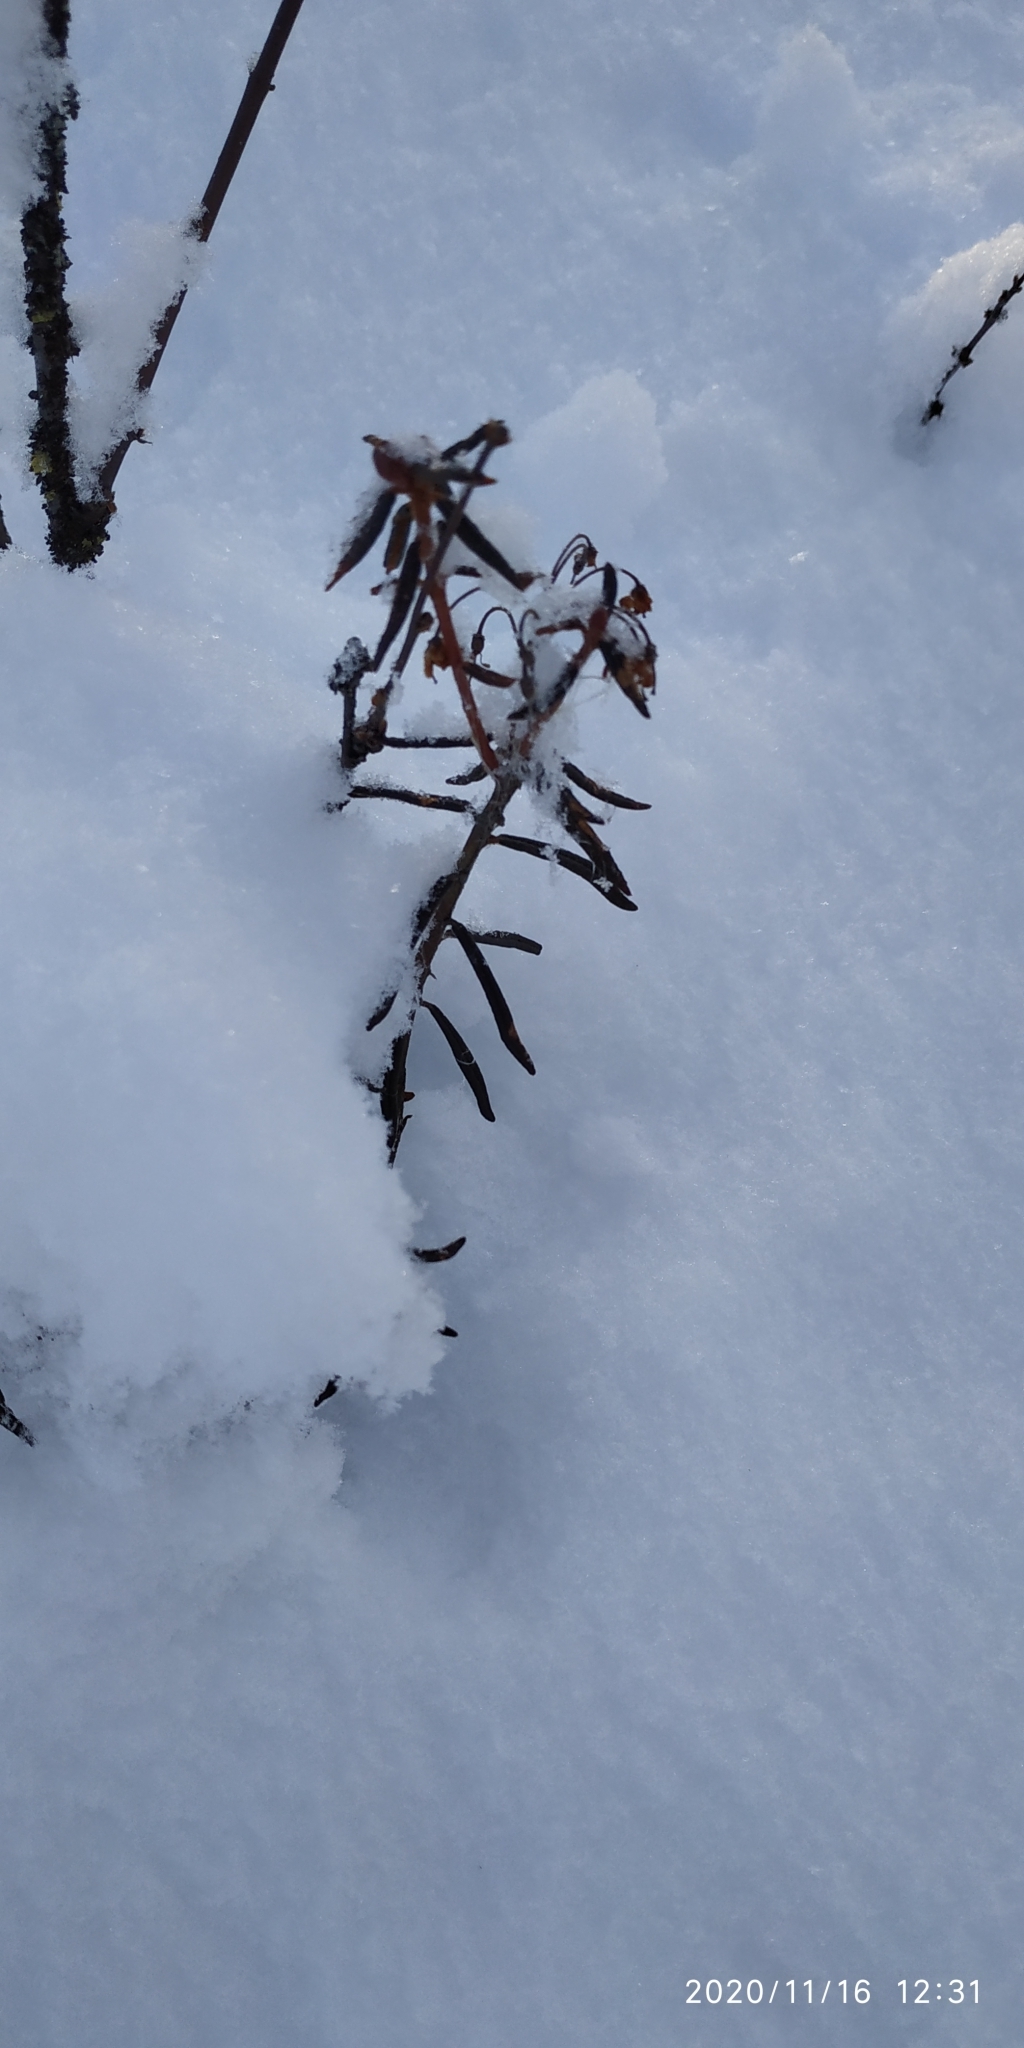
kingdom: Plantae
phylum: Tracheophyta
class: Magnoliopsida
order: Ericales
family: Ericaceae
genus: Rhododendron
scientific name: Rhododendron tomentosum
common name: Marsh labrador tea
